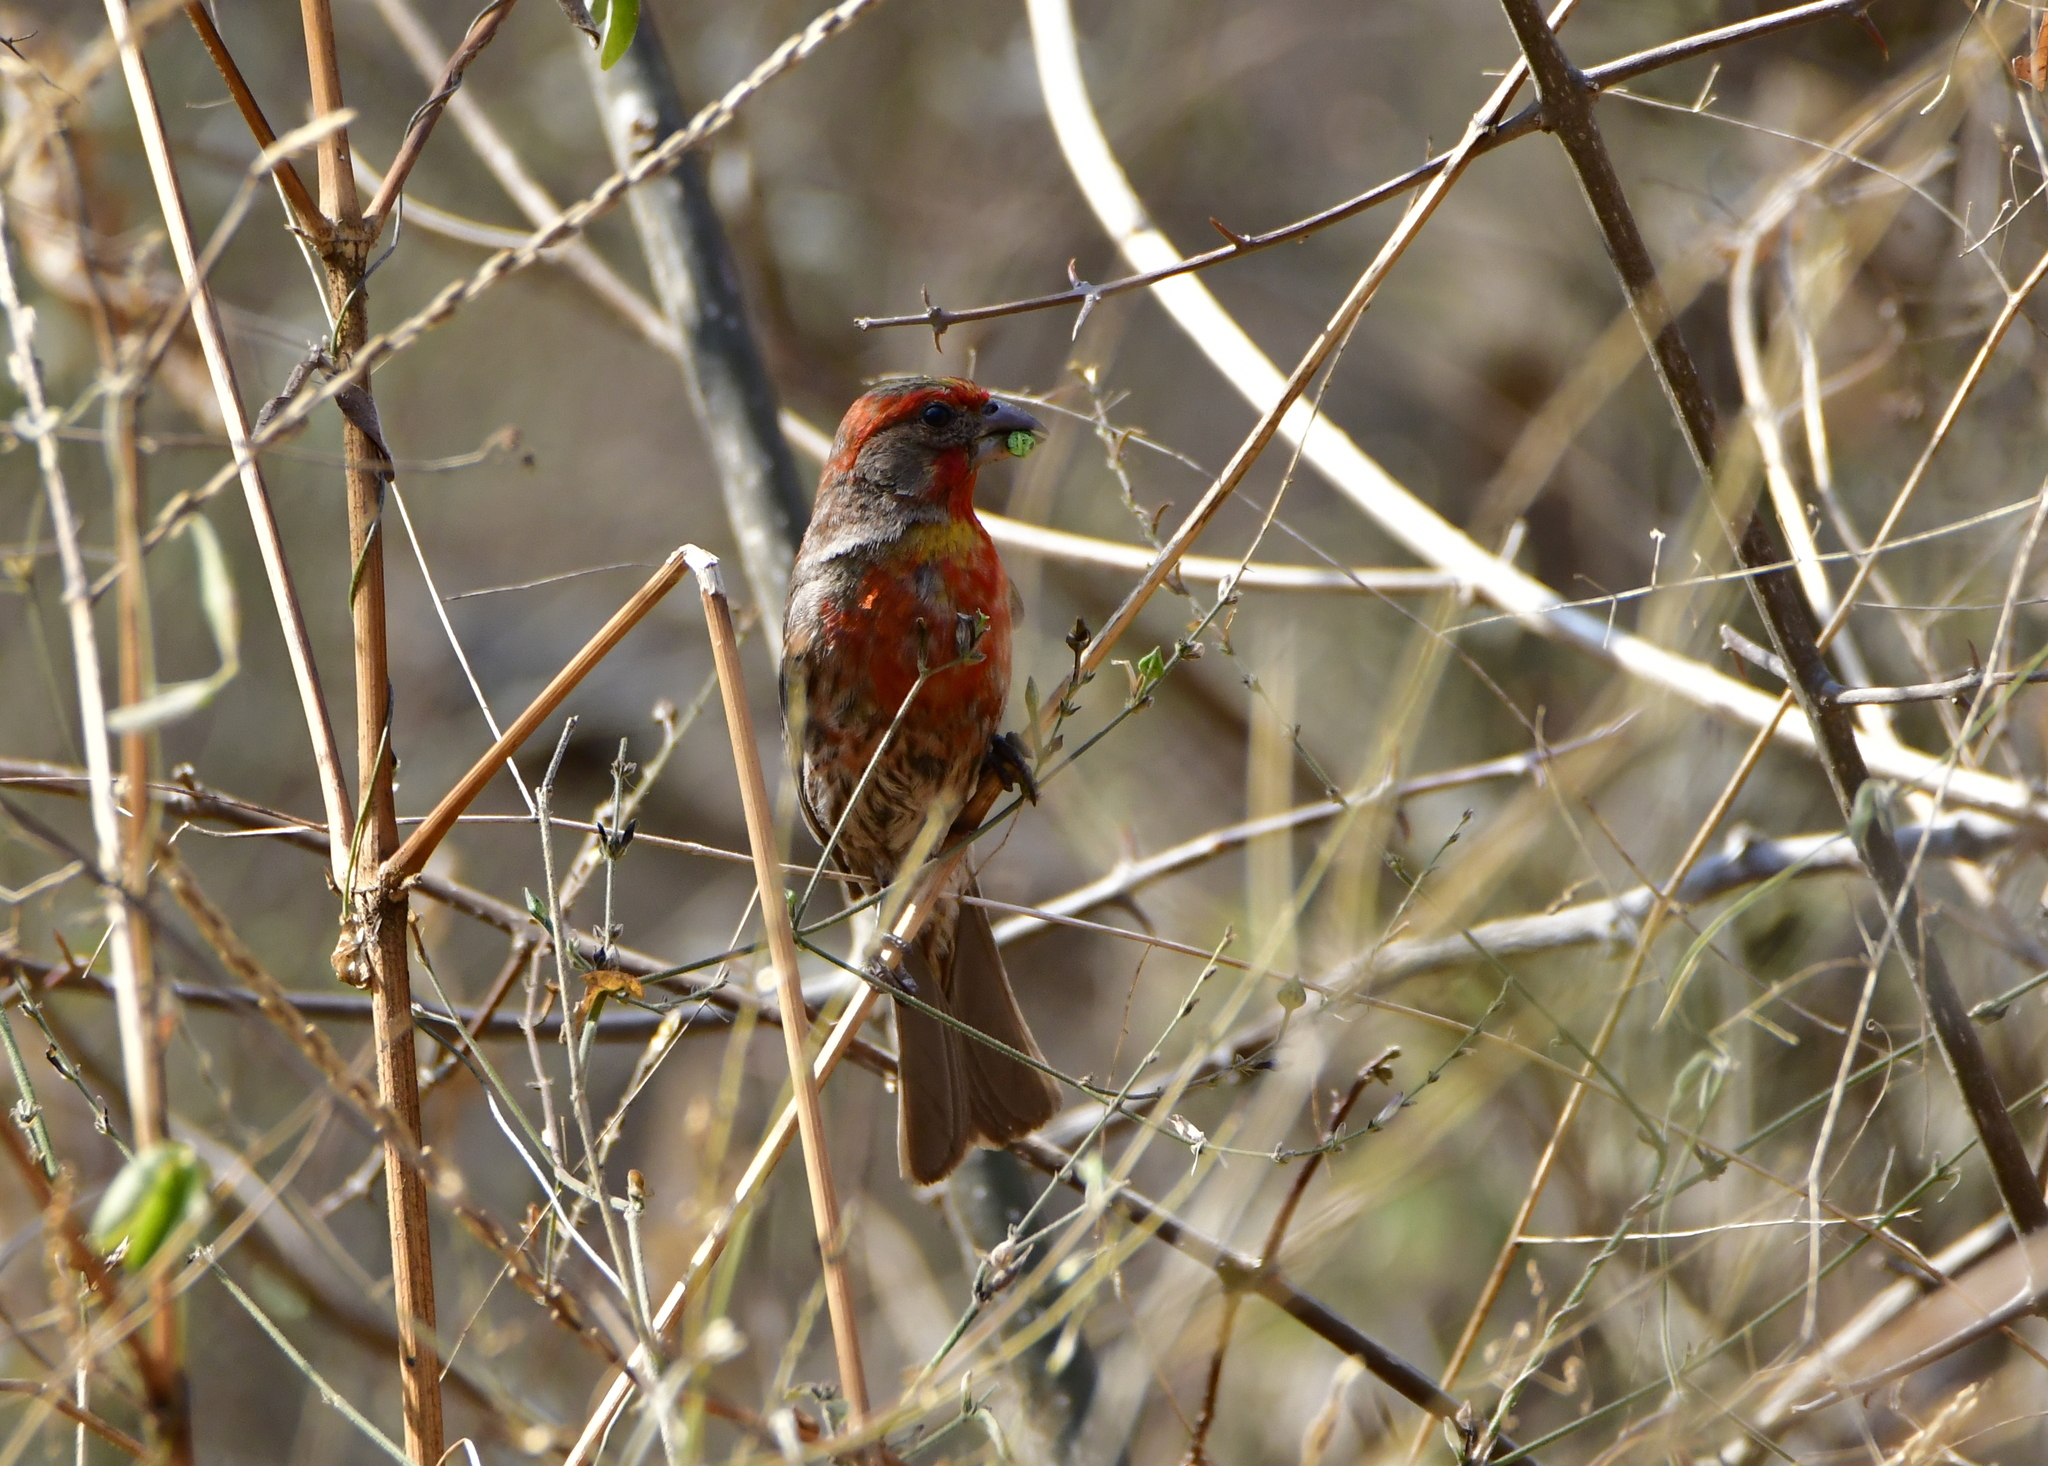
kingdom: Animalia
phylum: Chordata
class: Aves
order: Passeriformes
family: Fringillidae
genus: Haemorhous
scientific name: Haemorhous mexicanus
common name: House finch
